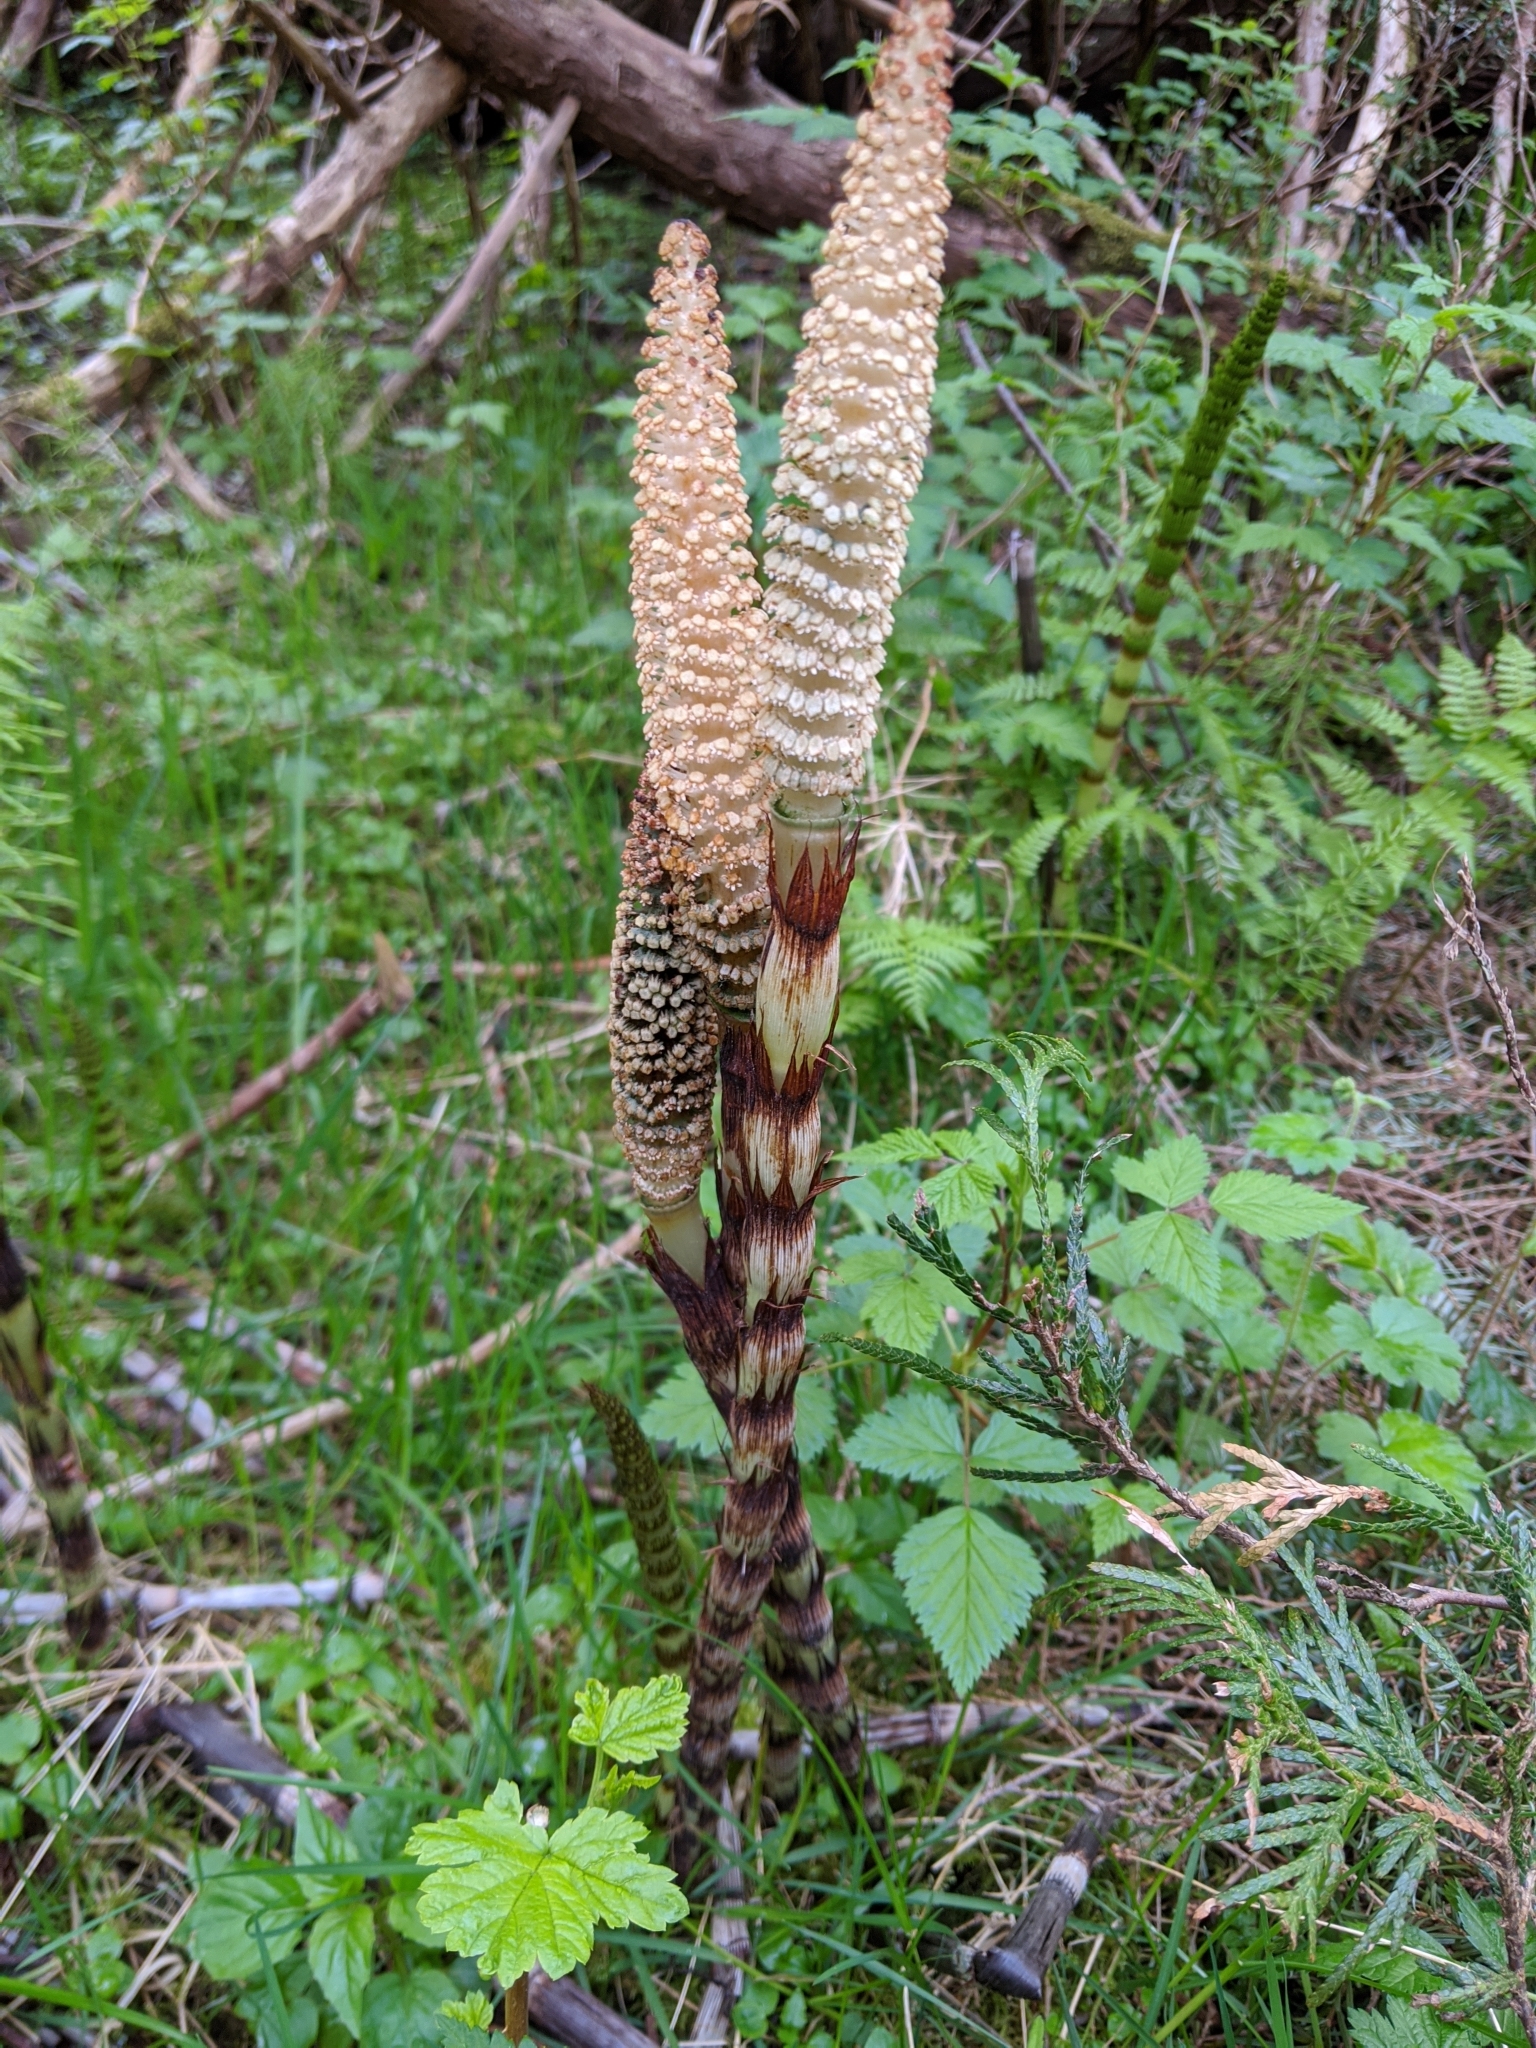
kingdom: Plantae
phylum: Tracheophyta
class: Polypodiopsida
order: Equisetales
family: Equisetaceae
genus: Equisetum
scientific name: Equisetum telmateia
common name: Great horsetail
